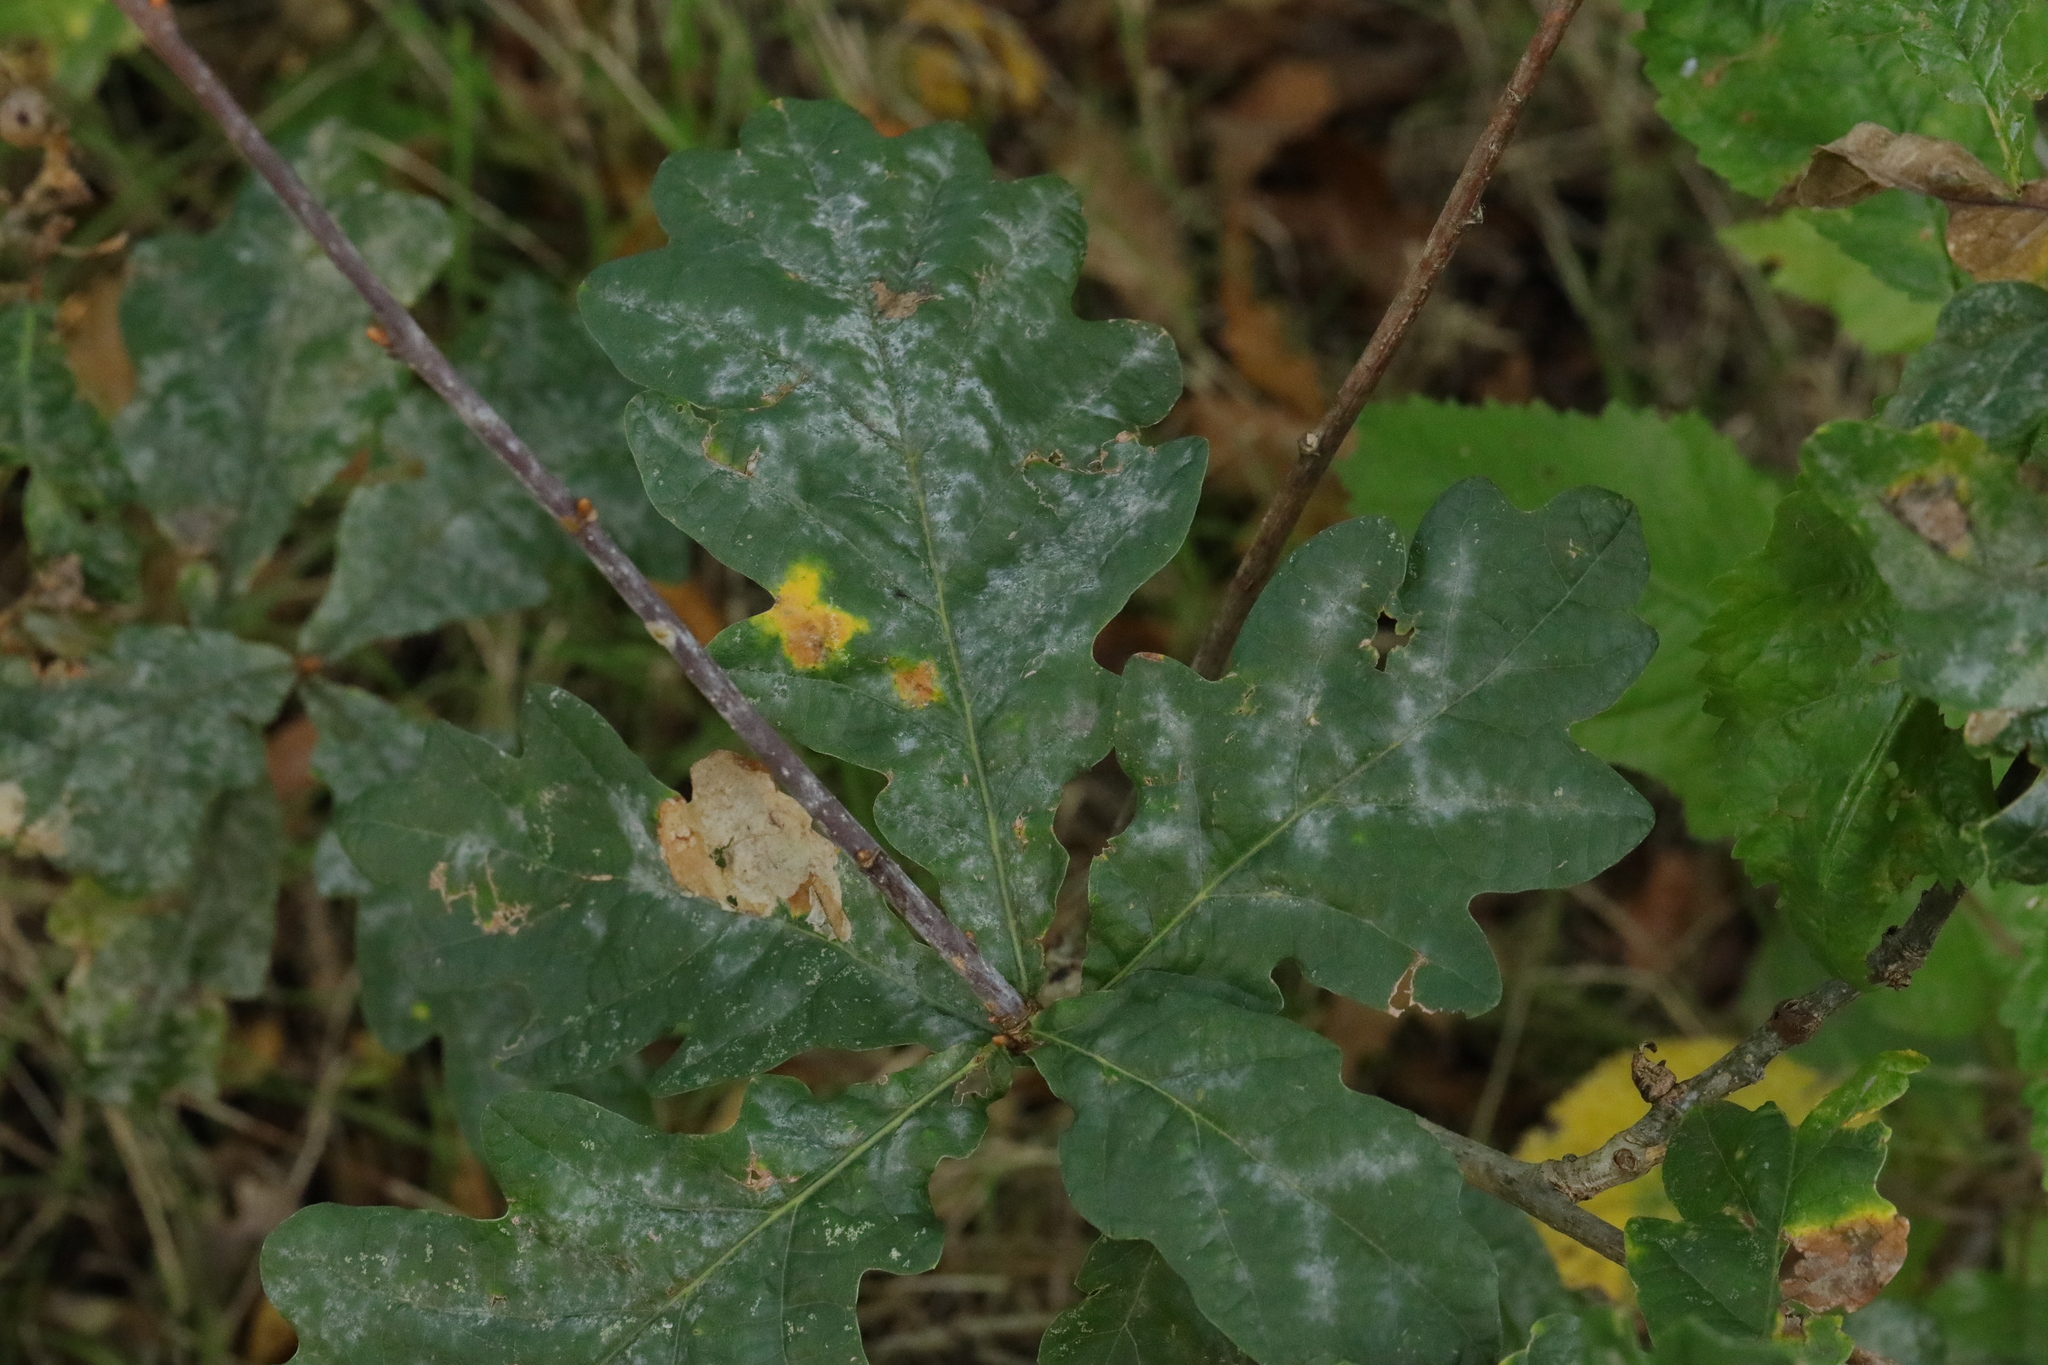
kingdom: Plantae
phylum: Tracheophyta
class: Magnoliopsida
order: Fagales
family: Fagaceae
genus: Quercus
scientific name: Quercus robur
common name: Pedunculate oak
